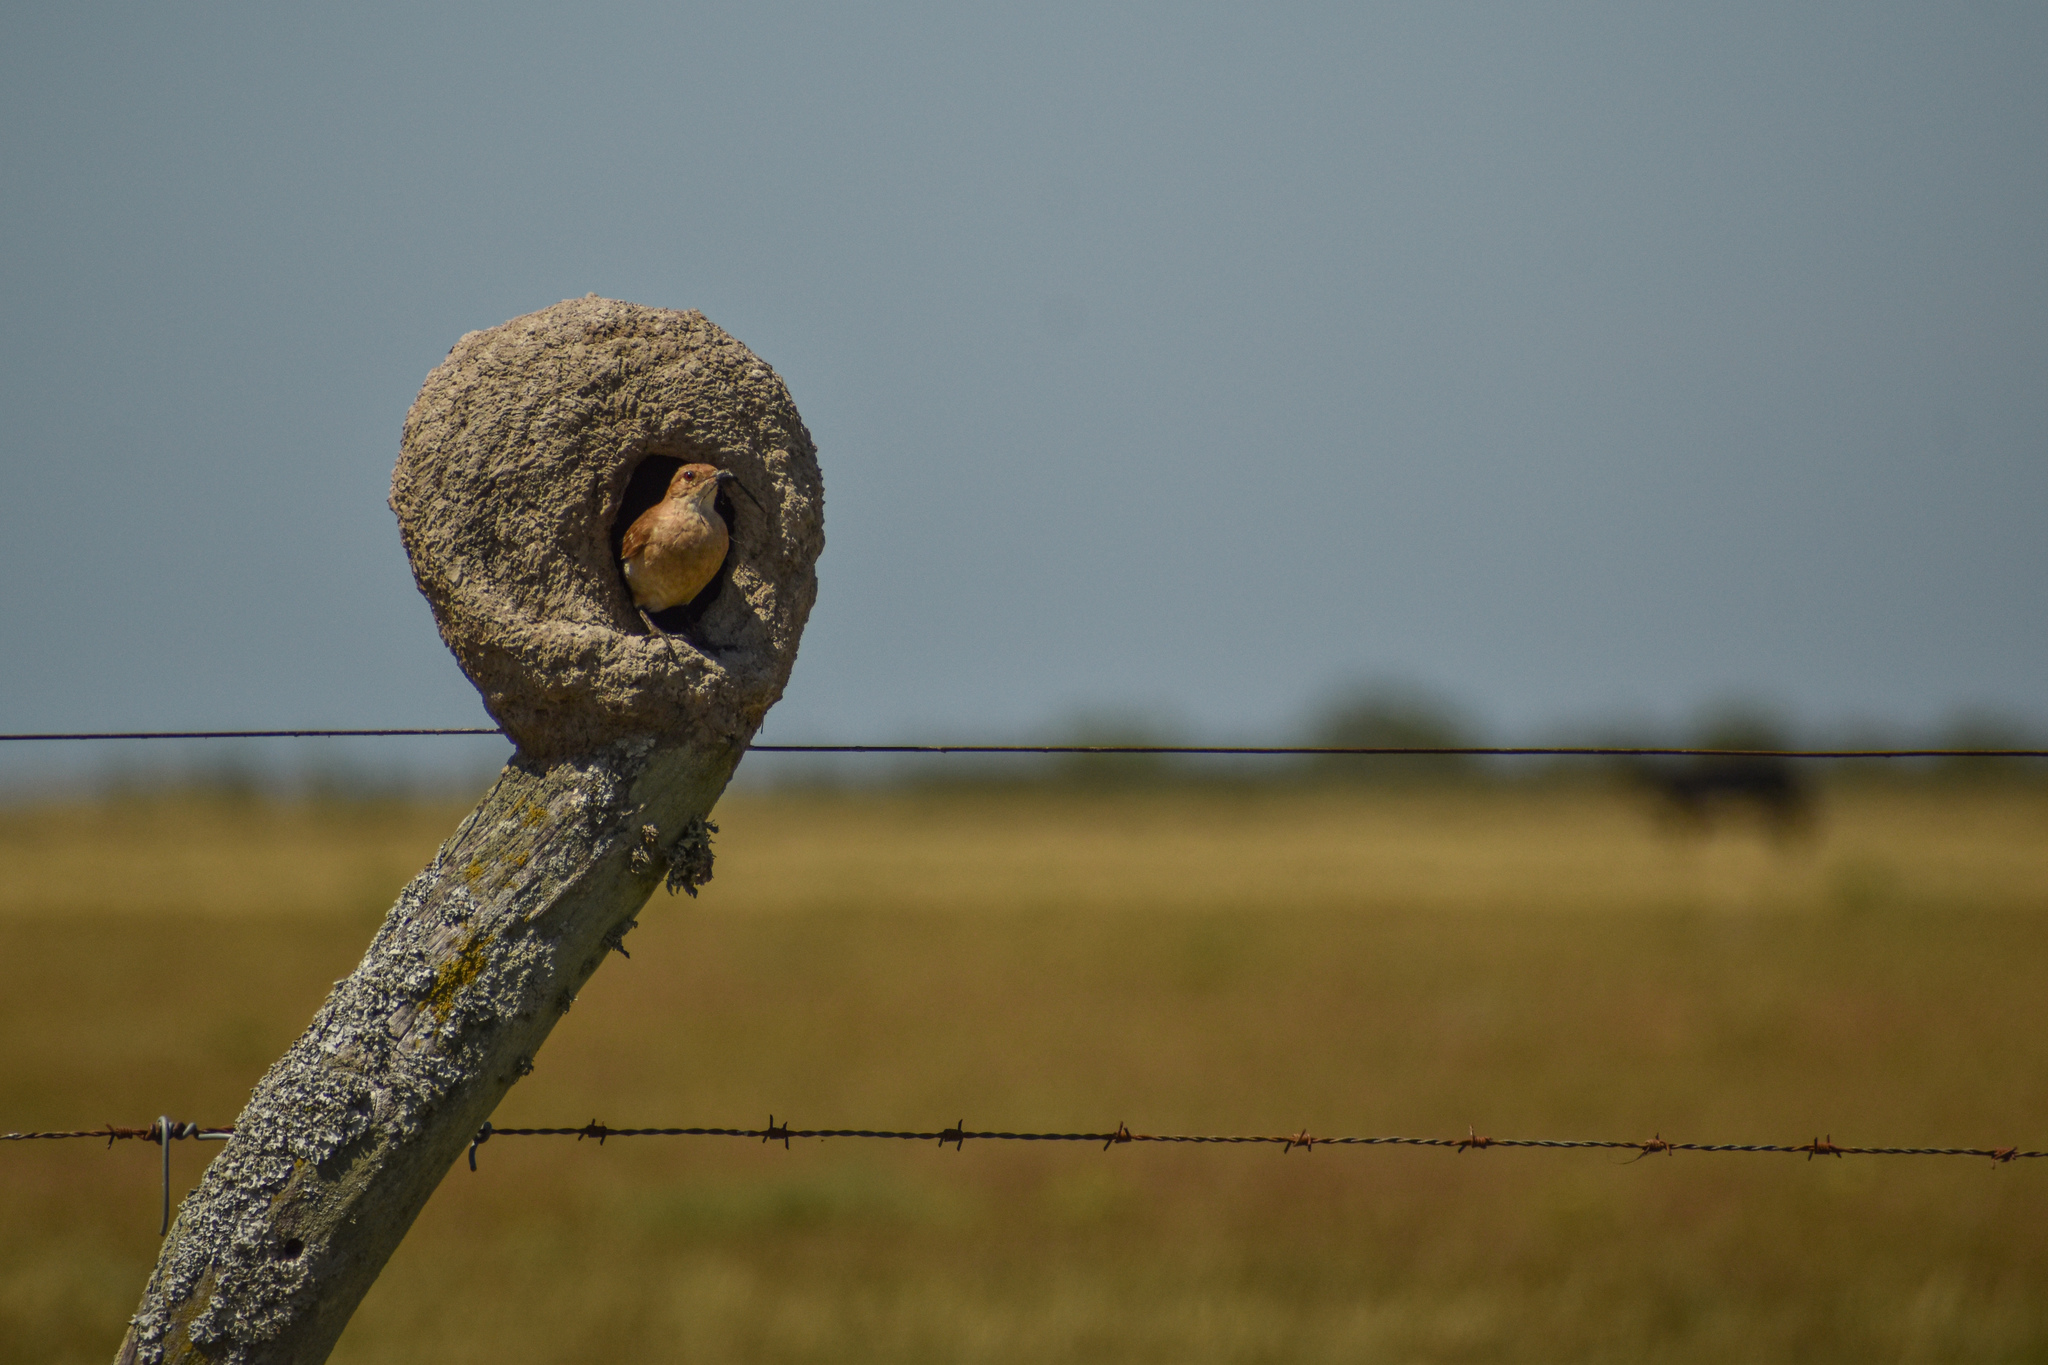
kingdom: Animalia
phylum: Chordata
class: Aves
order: Passeriformes
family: Furnariidae
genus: Furnarius
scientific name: Furnarius rufus
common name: Rufous hornero
